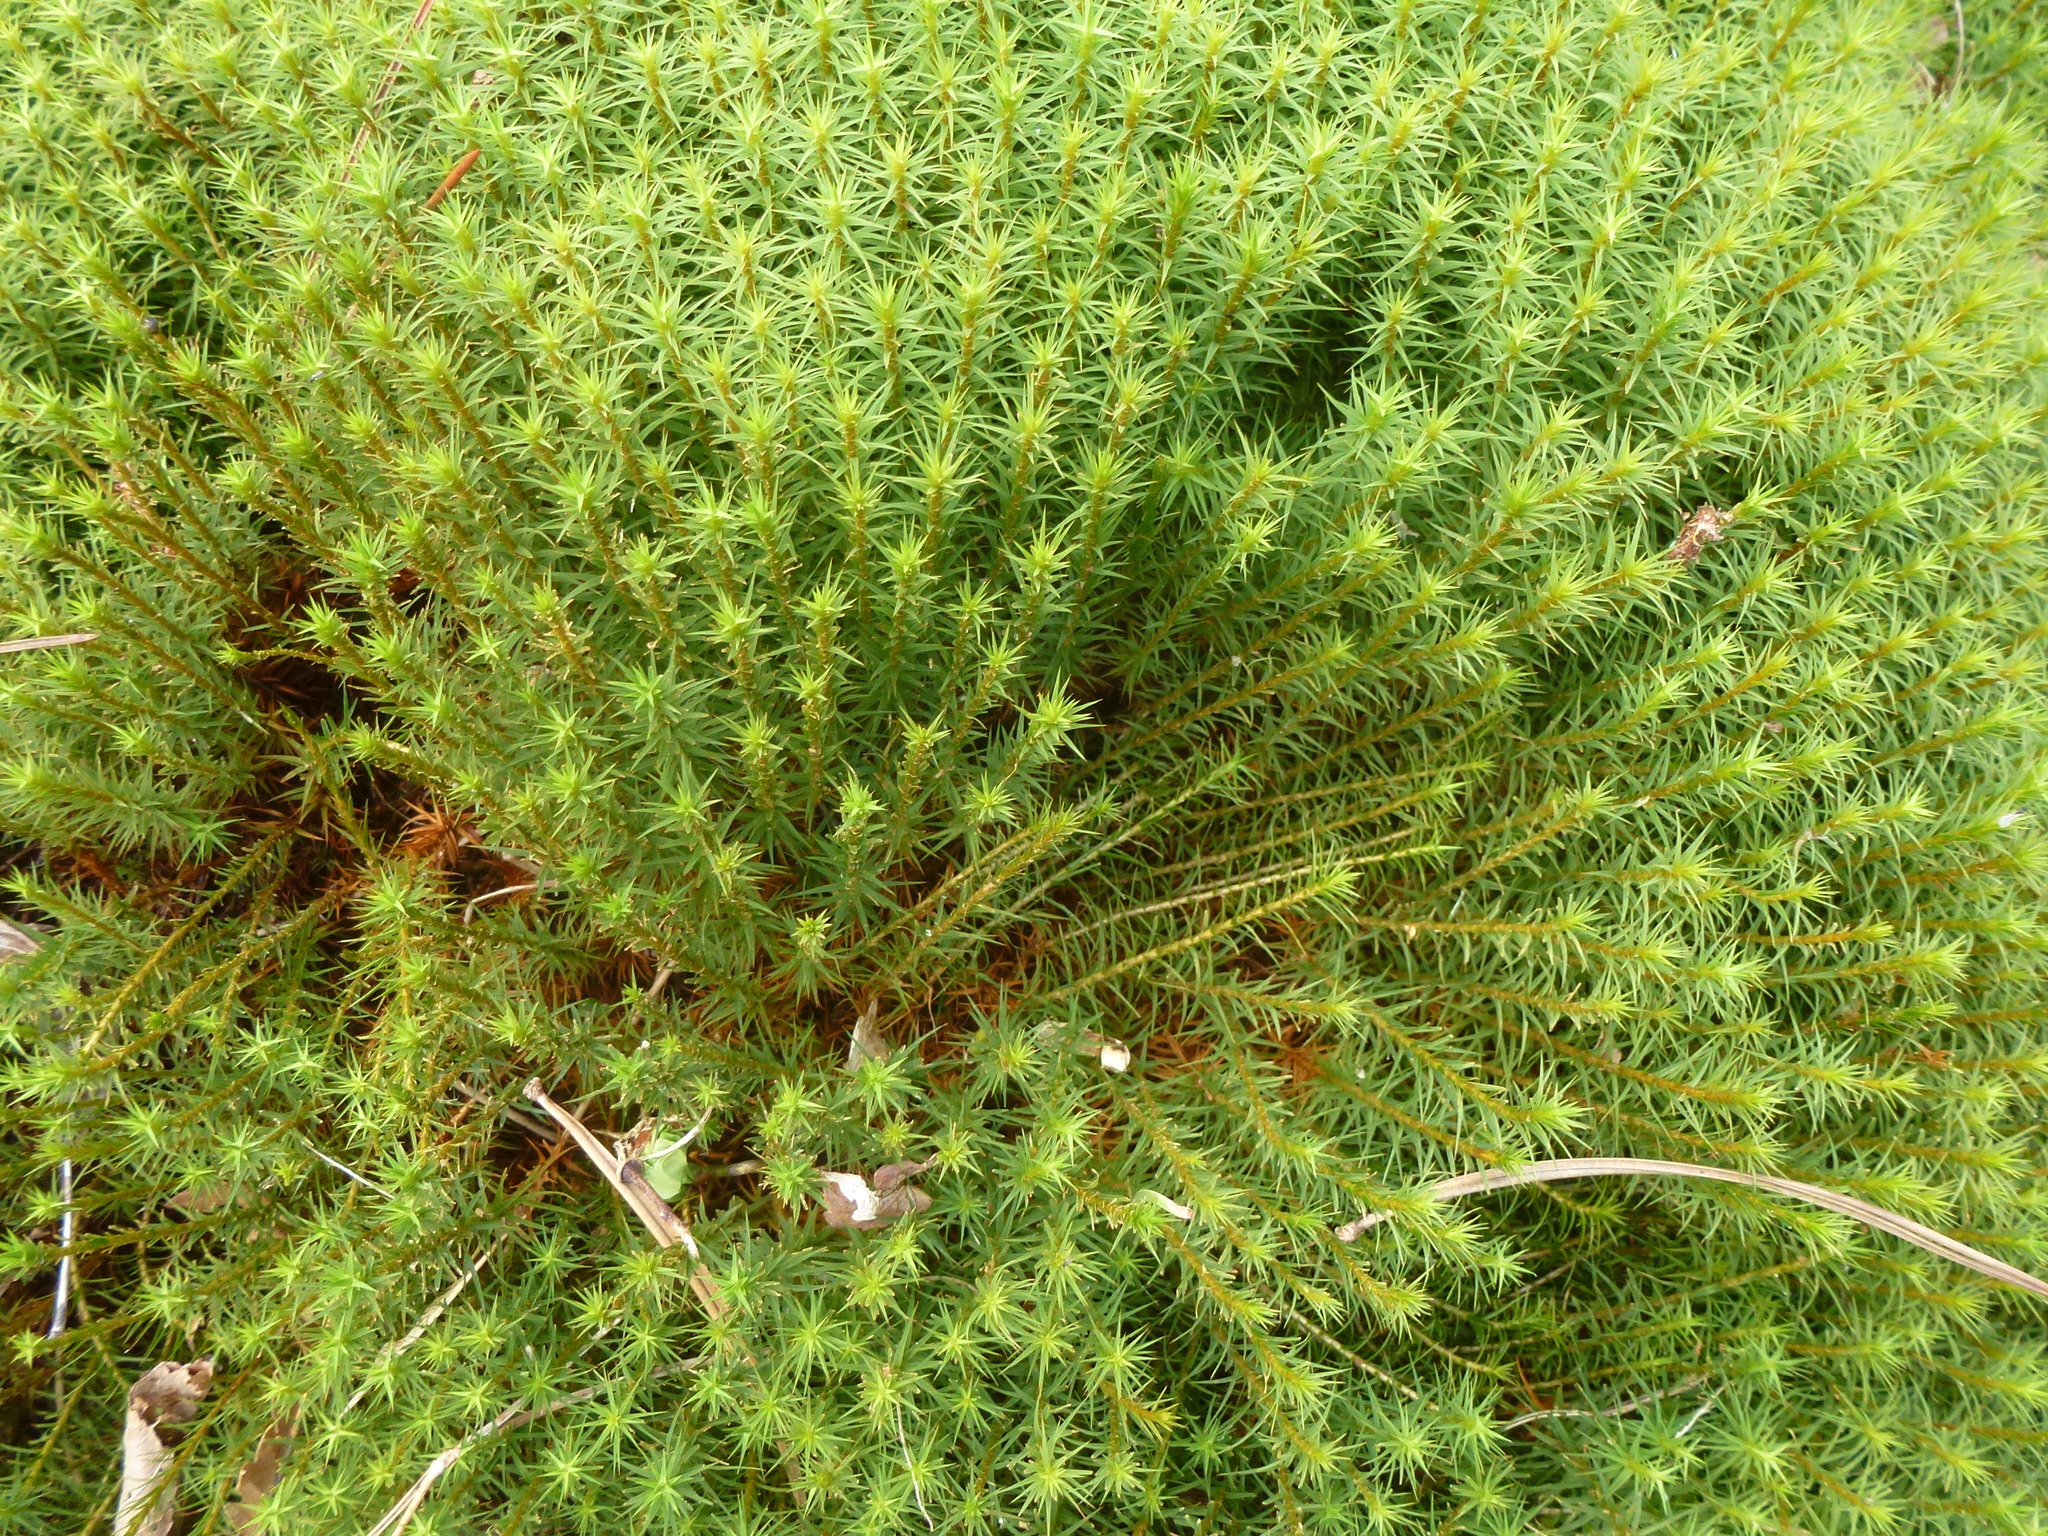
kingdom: Plantae
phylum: Bryophyta
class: Polytrichopsida
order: Polytrichales
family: Polytrichaceae
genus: Polytrichum
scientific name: Polytrichum commune
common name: Common haircap
